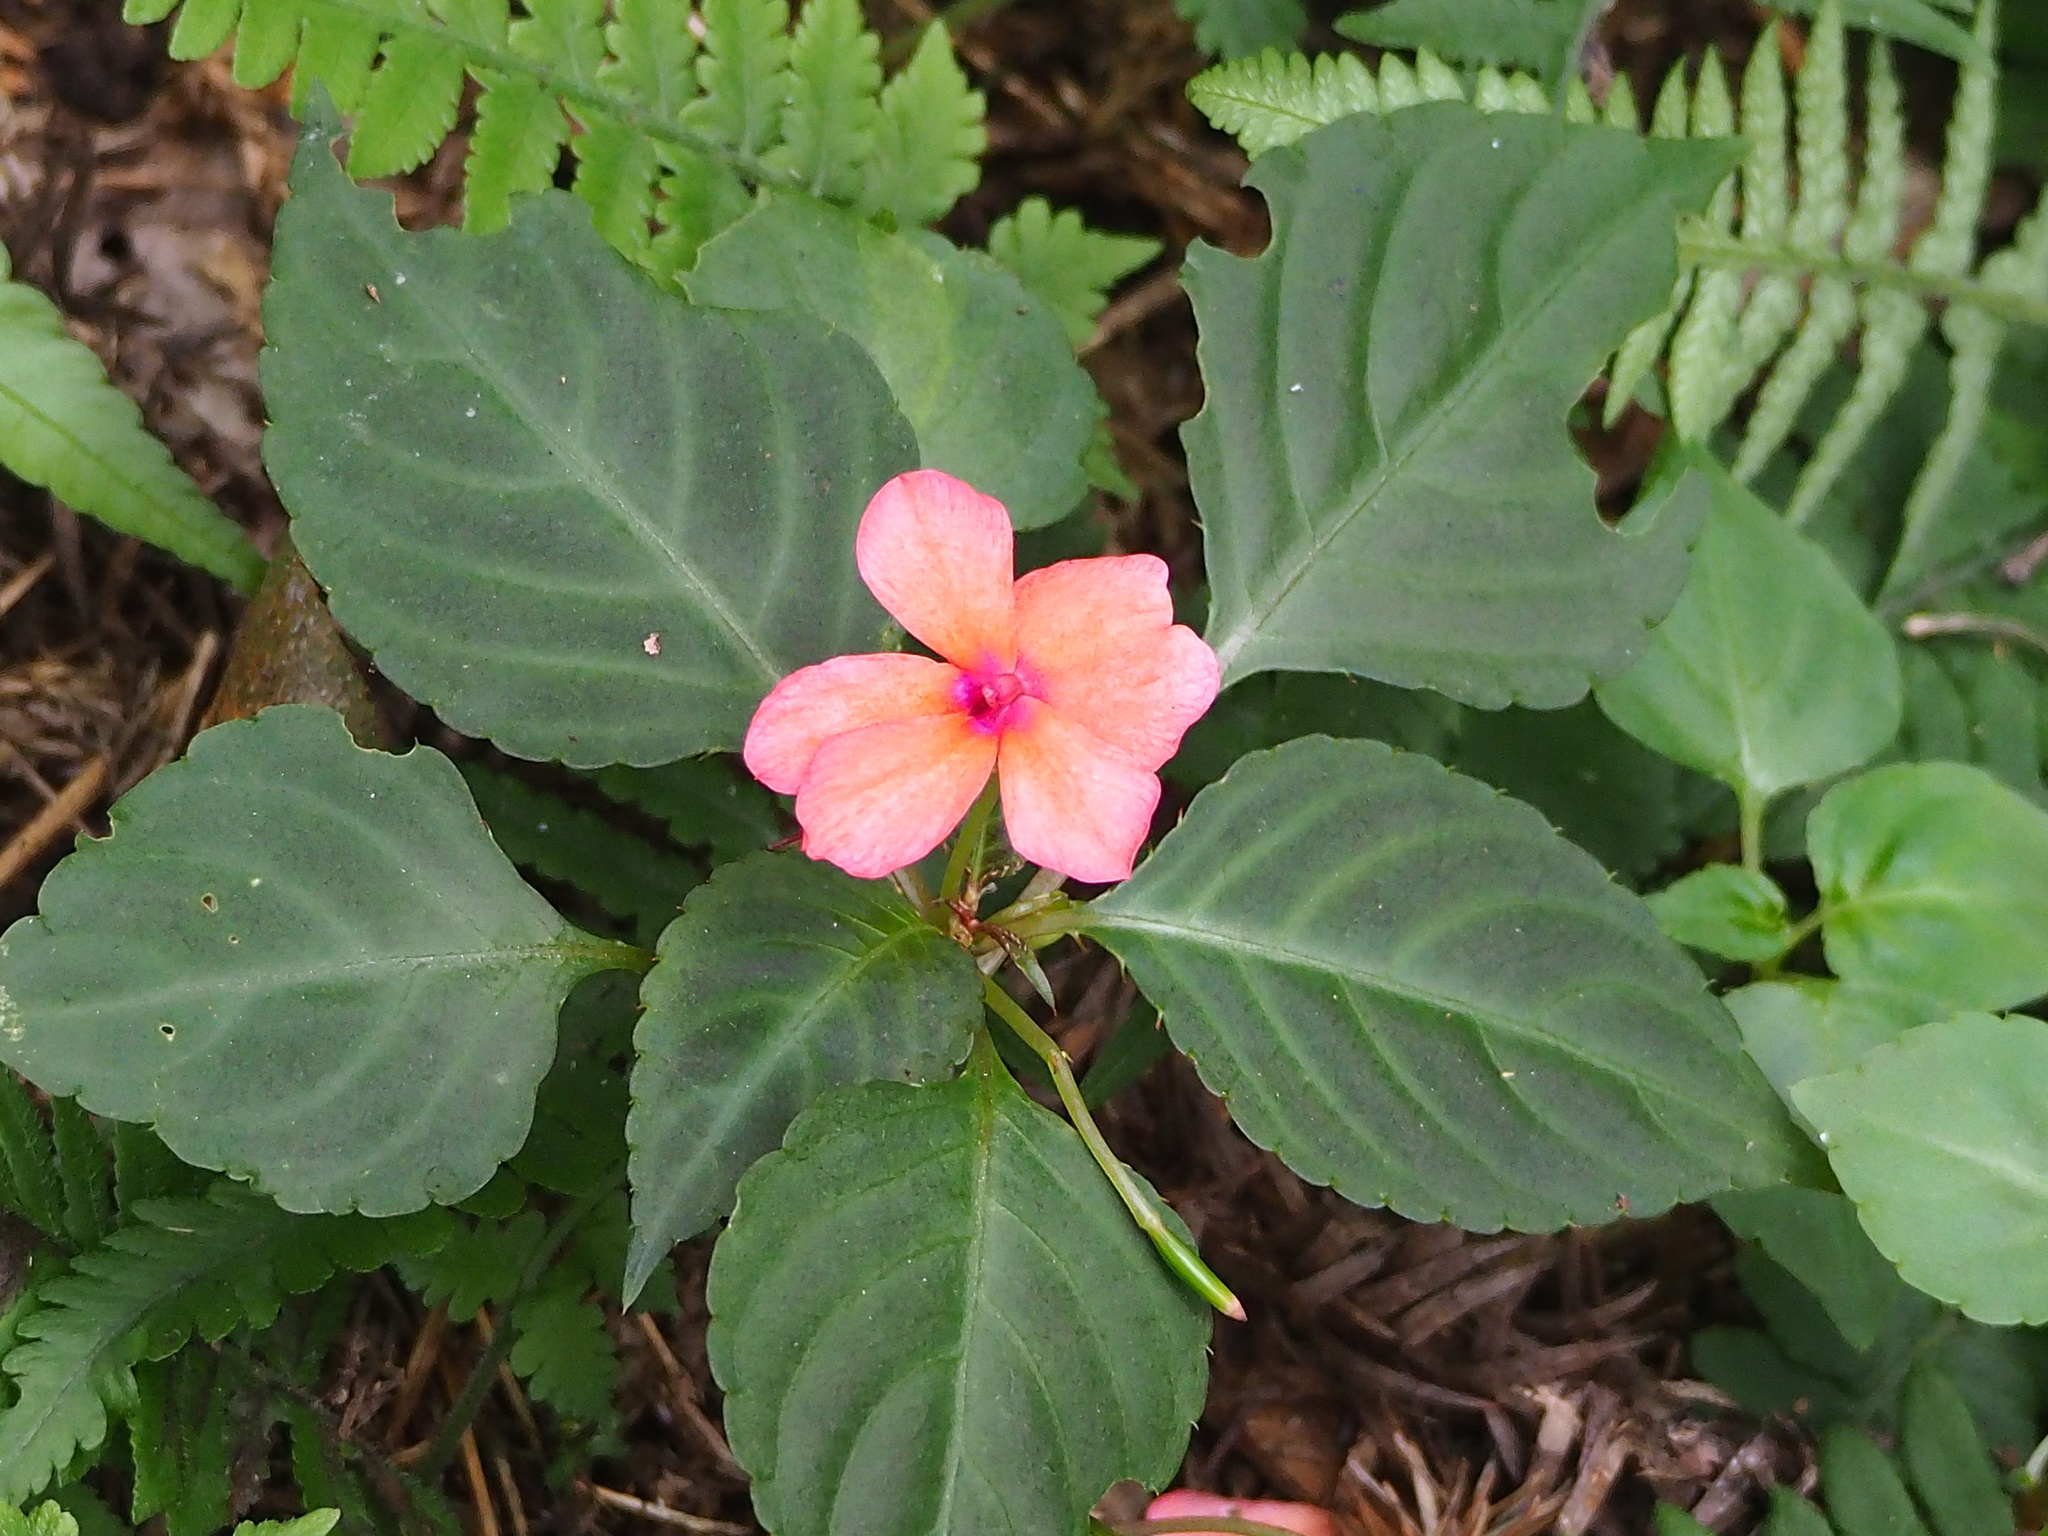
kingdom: Plantae
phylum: Tracheophyta
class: Magnoliopsida
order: Ericales
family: Balsaminaceae
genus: Impatiens
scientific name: Impatiens walleriana
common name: Buzzy lizzy
